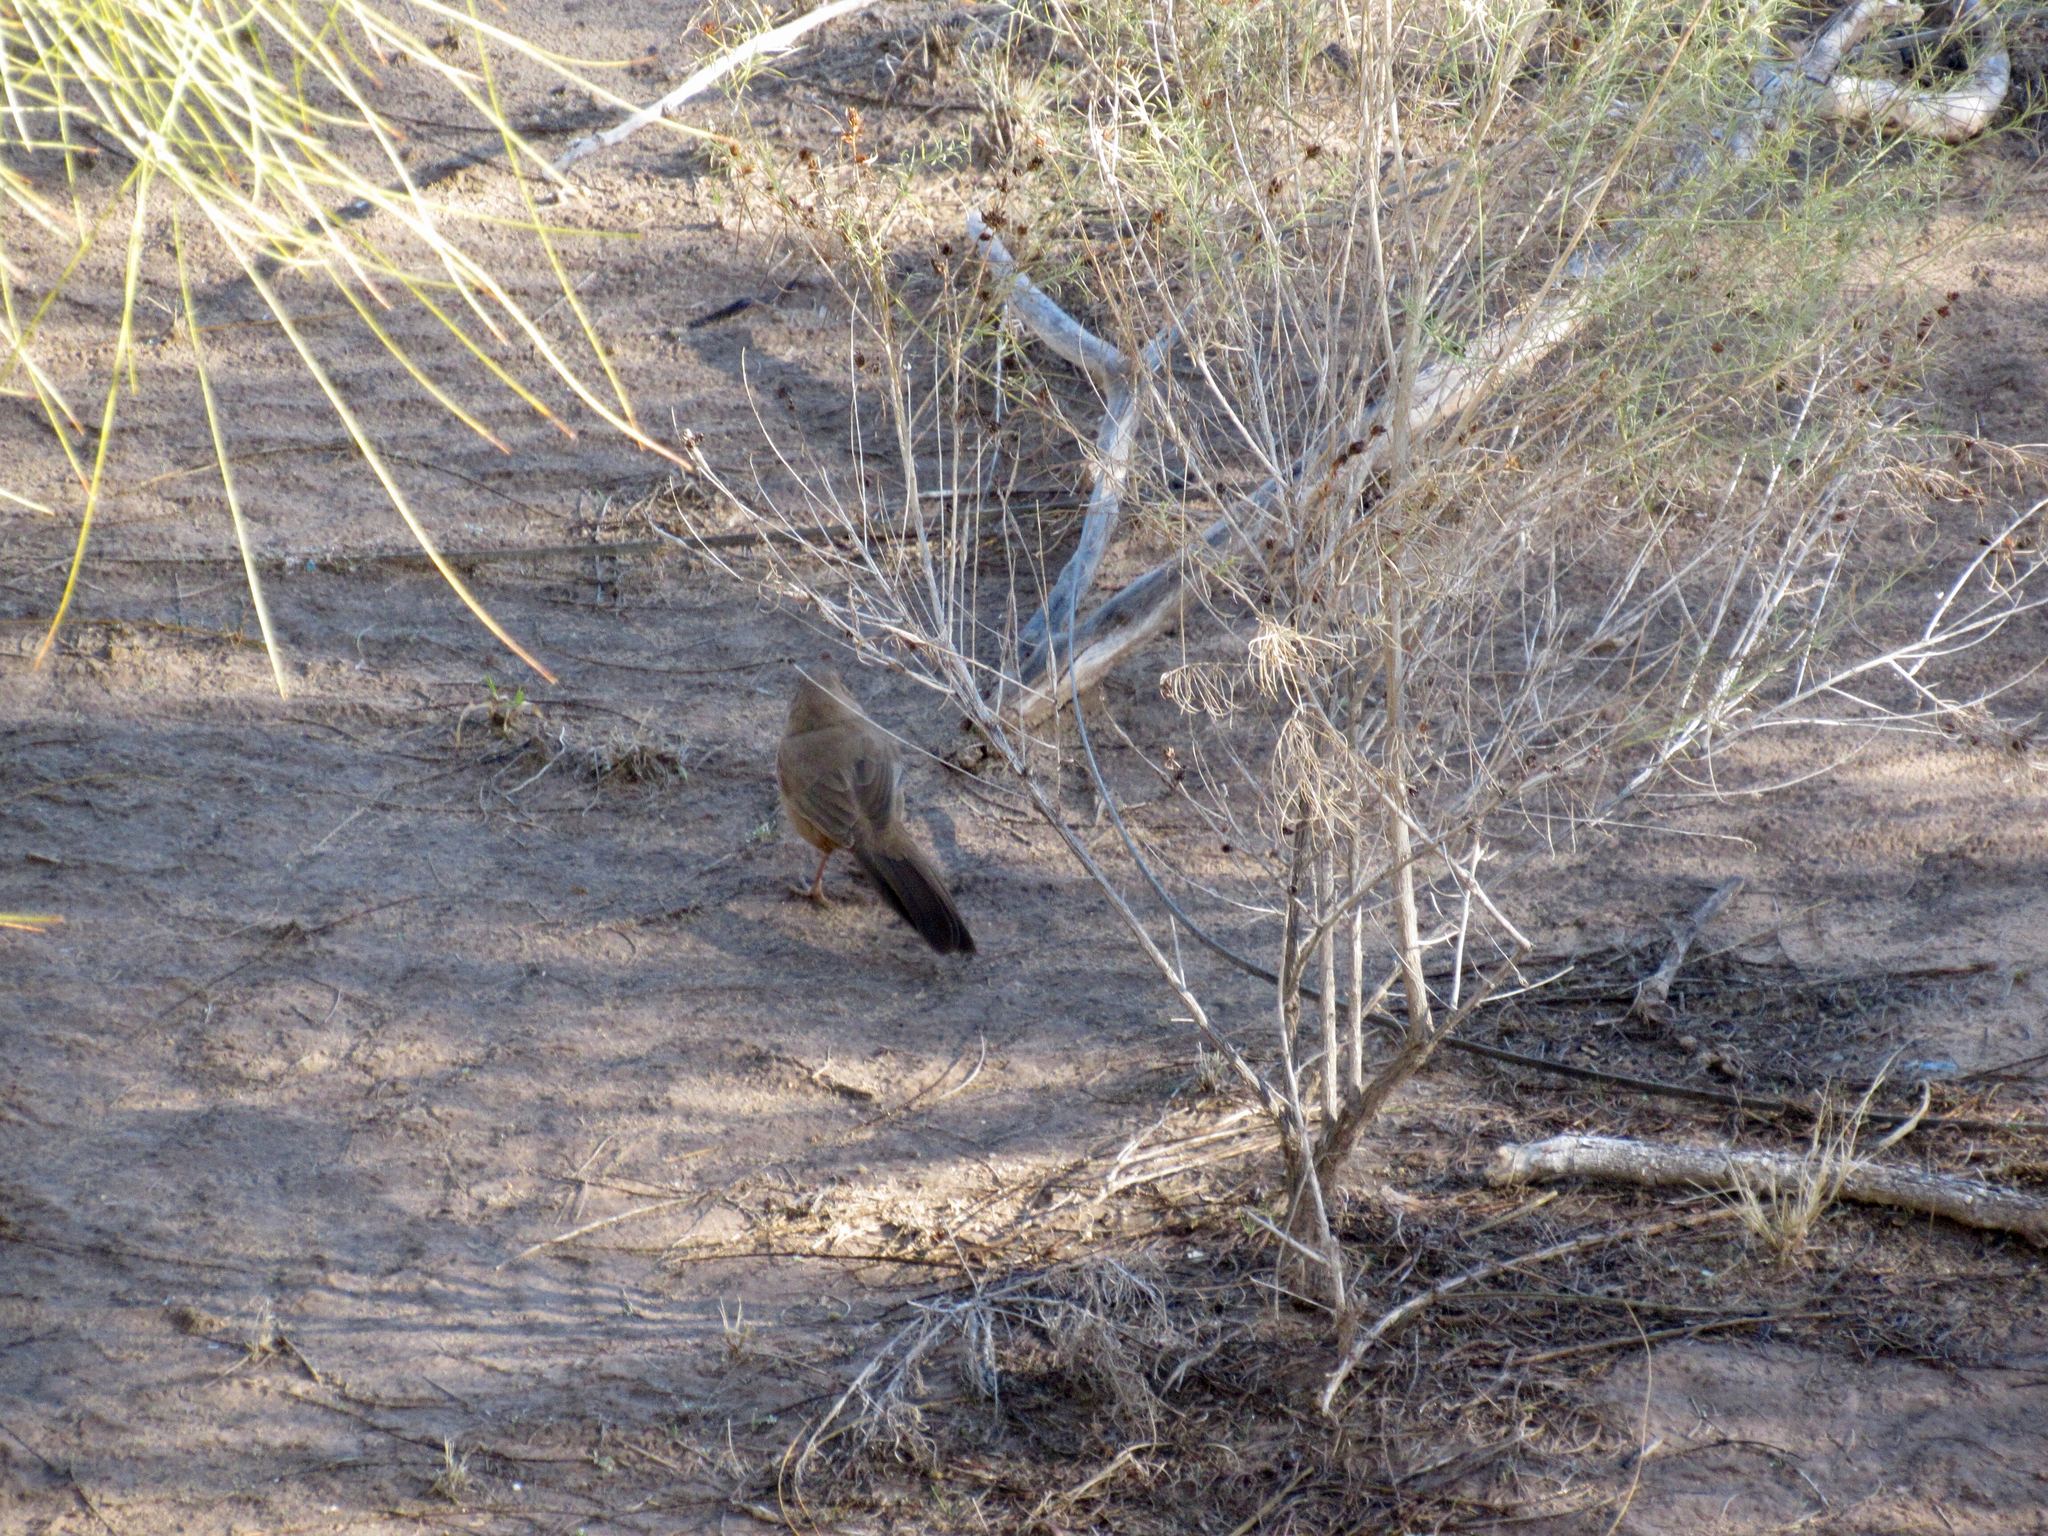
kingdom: Animalia
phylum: Chordata
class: Aves
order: Cuculiformes
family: Cuculidae
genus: Geococcyx
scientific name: Geococcyx californianus
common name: Greater roadrunner
